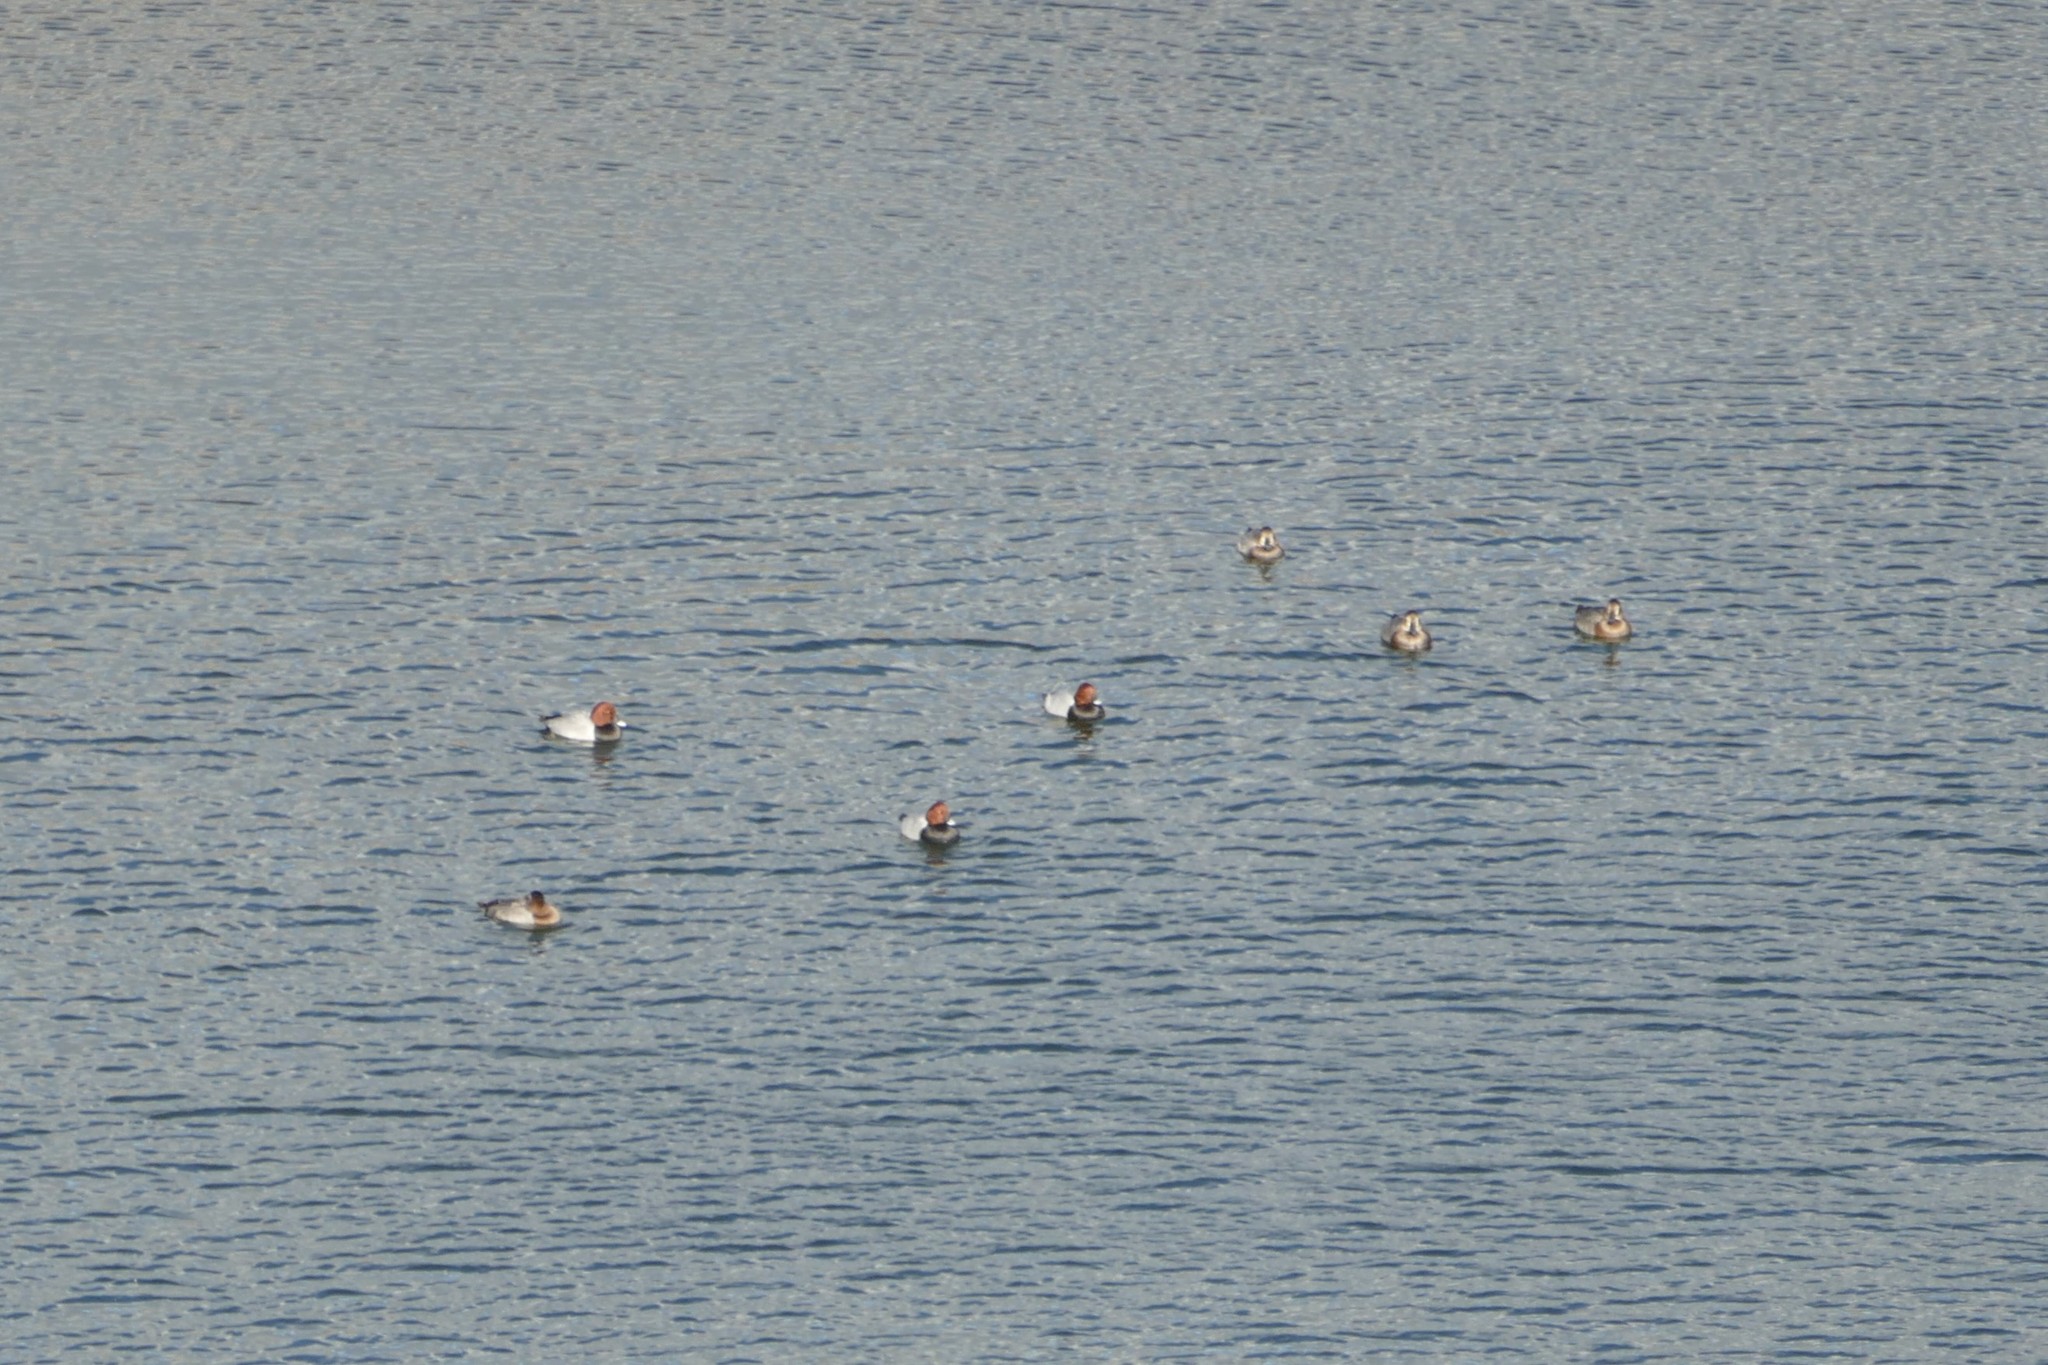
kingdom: Animalia
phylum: Chordata
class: Aves
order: Anseriformes
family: Anatidae
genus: Aythya
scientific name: Aythya ferina
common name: Common pochard
